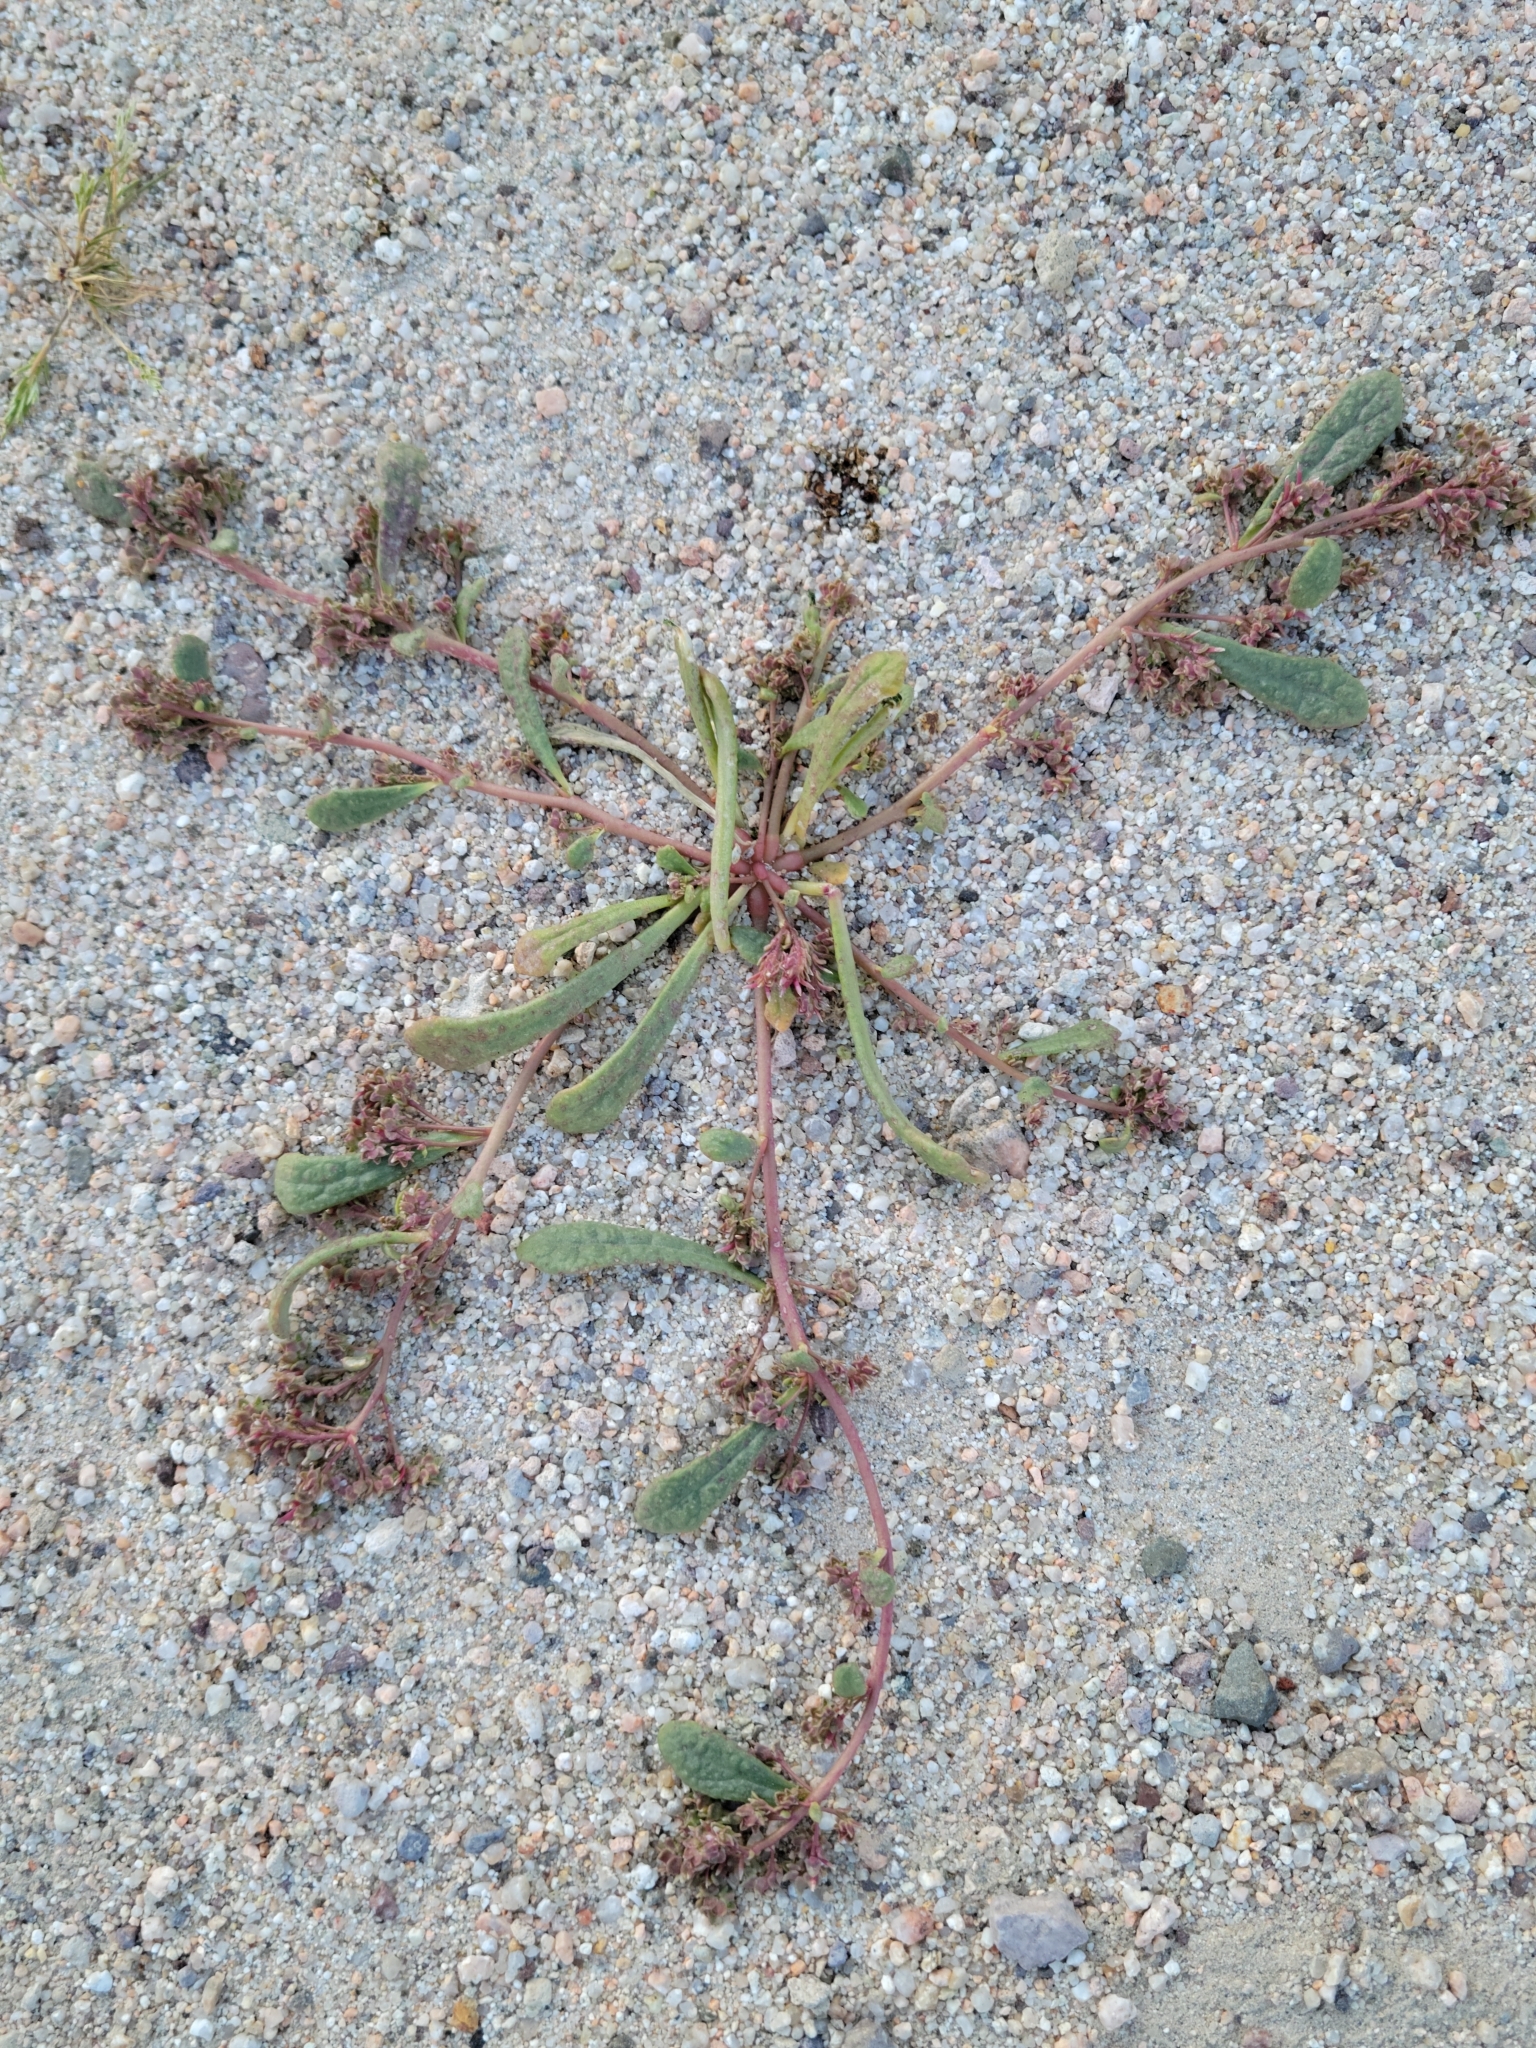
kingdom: Plantae
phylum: Tracheophyta
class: Magnoliopsida
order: Caryophyllales
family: Montiaceae
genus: Calyptridium
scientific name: Calyptridium monandrum
